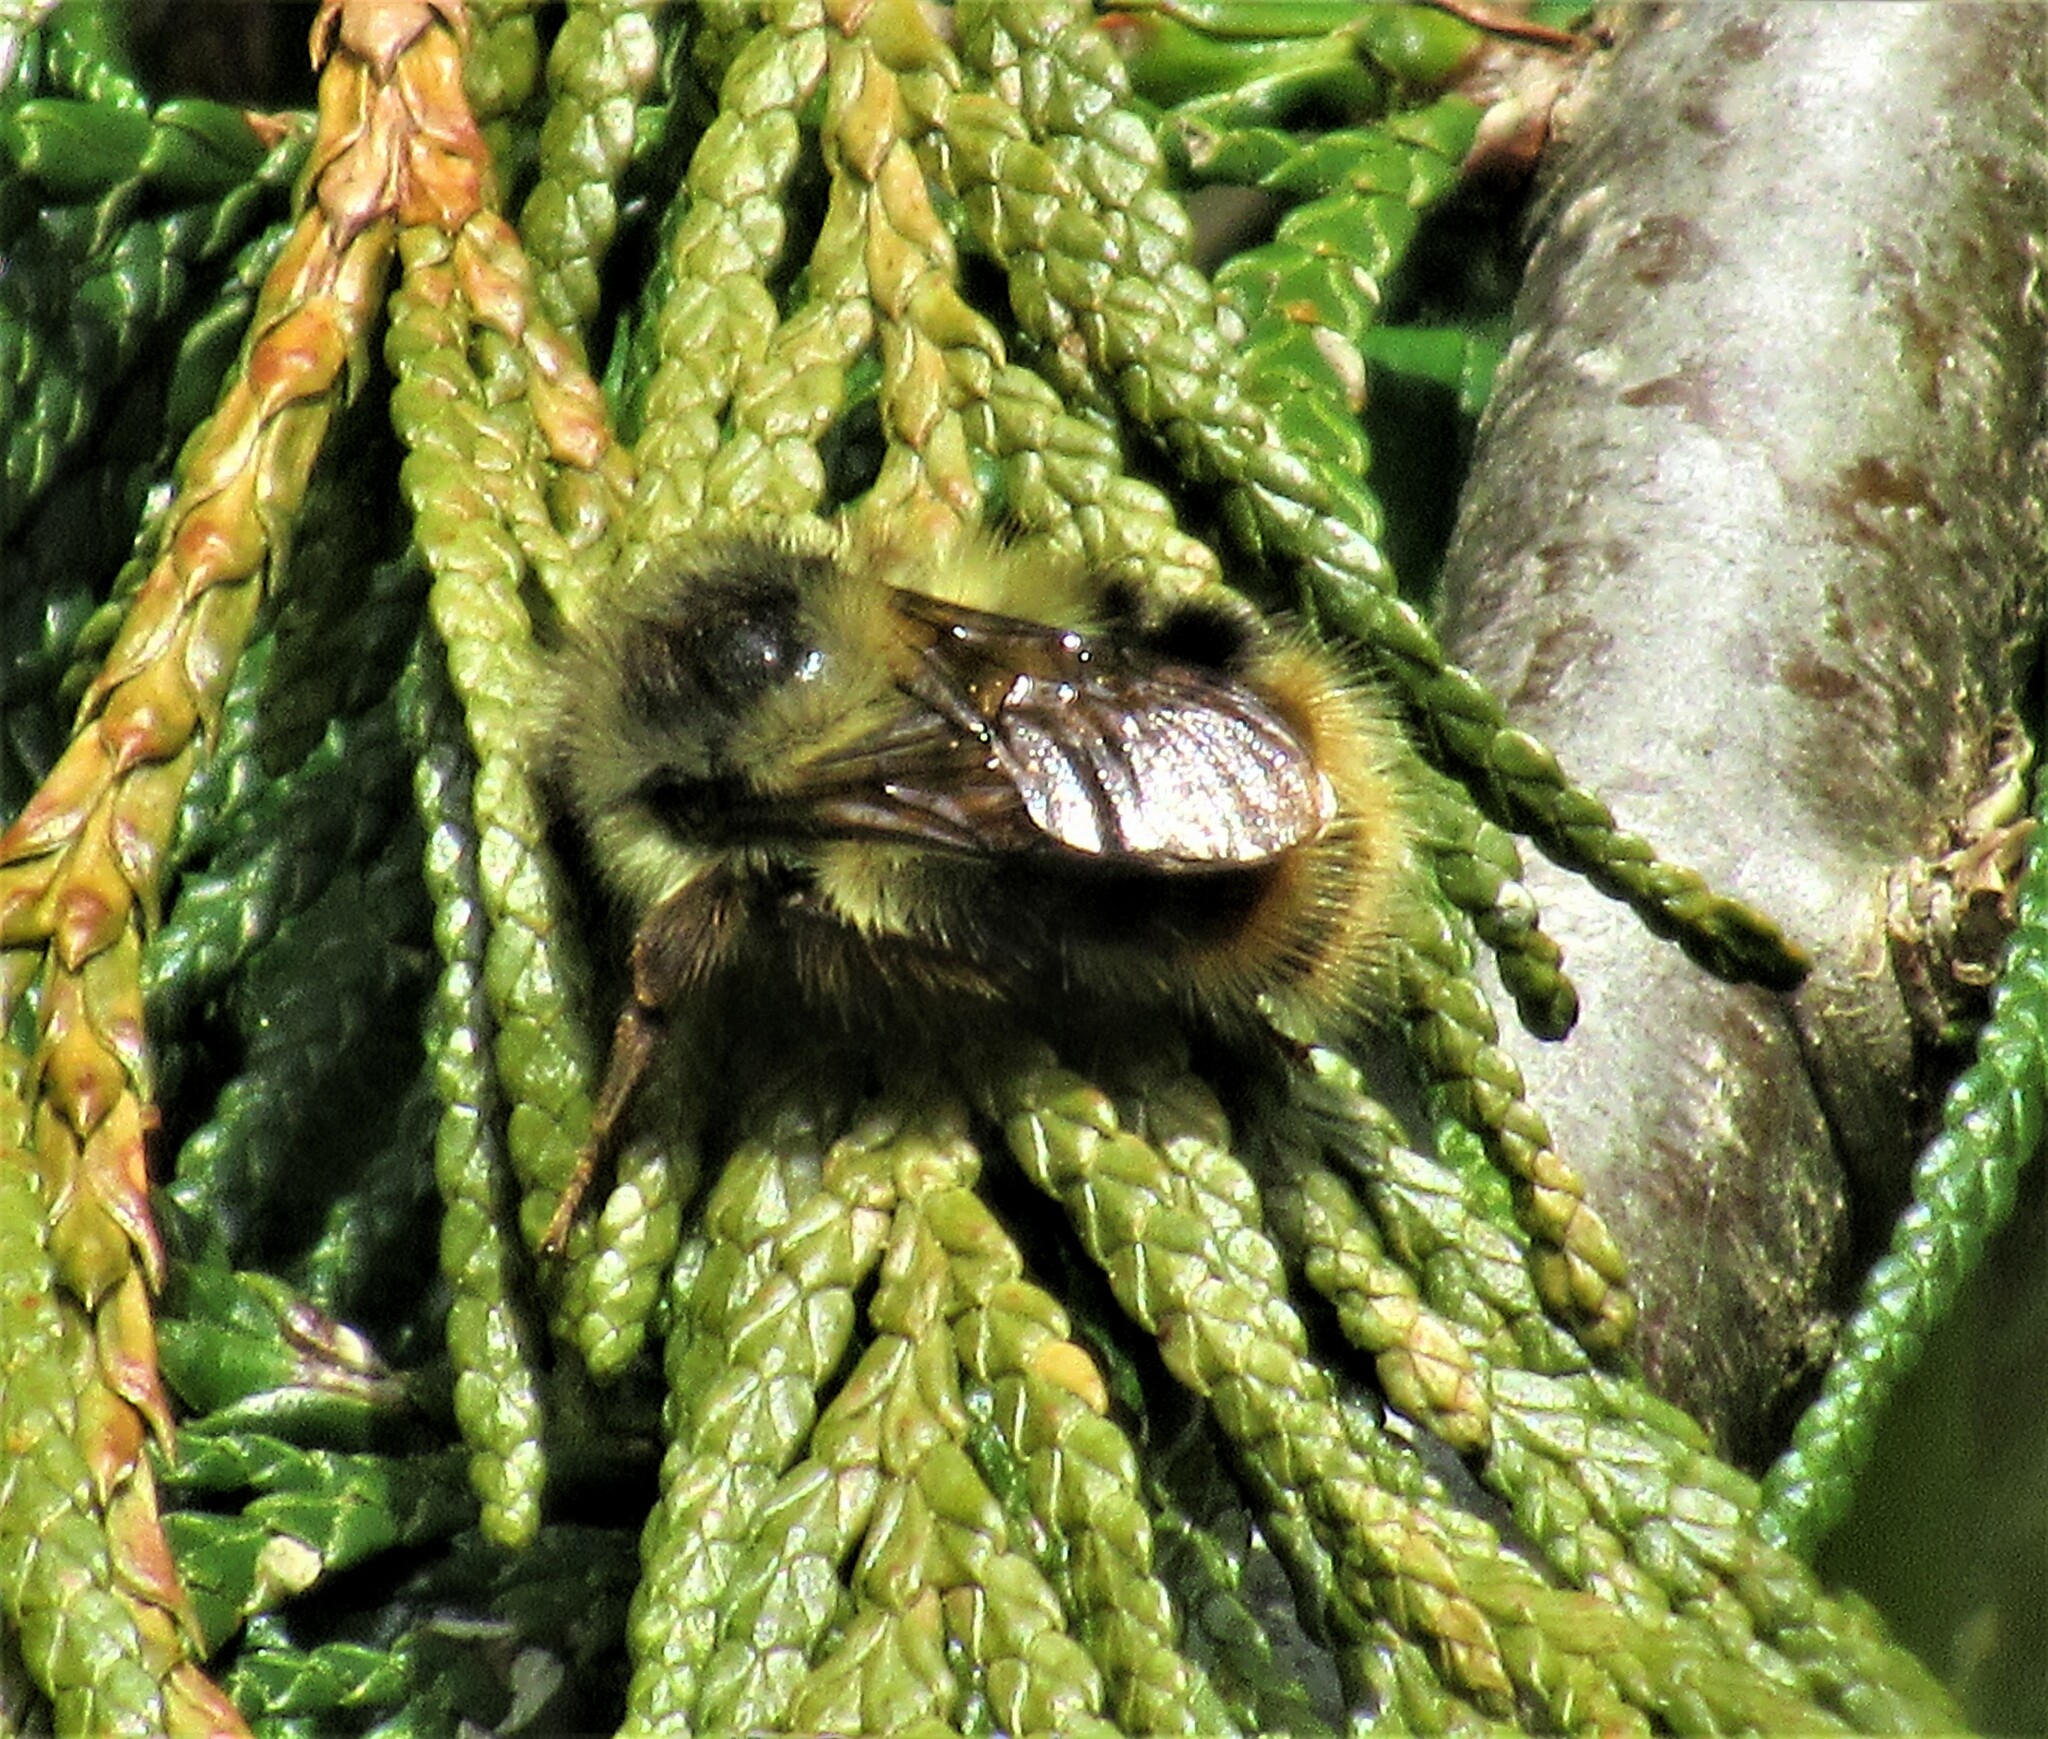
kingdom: Animalia
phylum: Arthropoda
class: Insecta
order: Hymenoptera
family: Apidae
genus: Bombus
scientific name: Bombus mixtus
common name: Fuzzy-horned bumble bee
